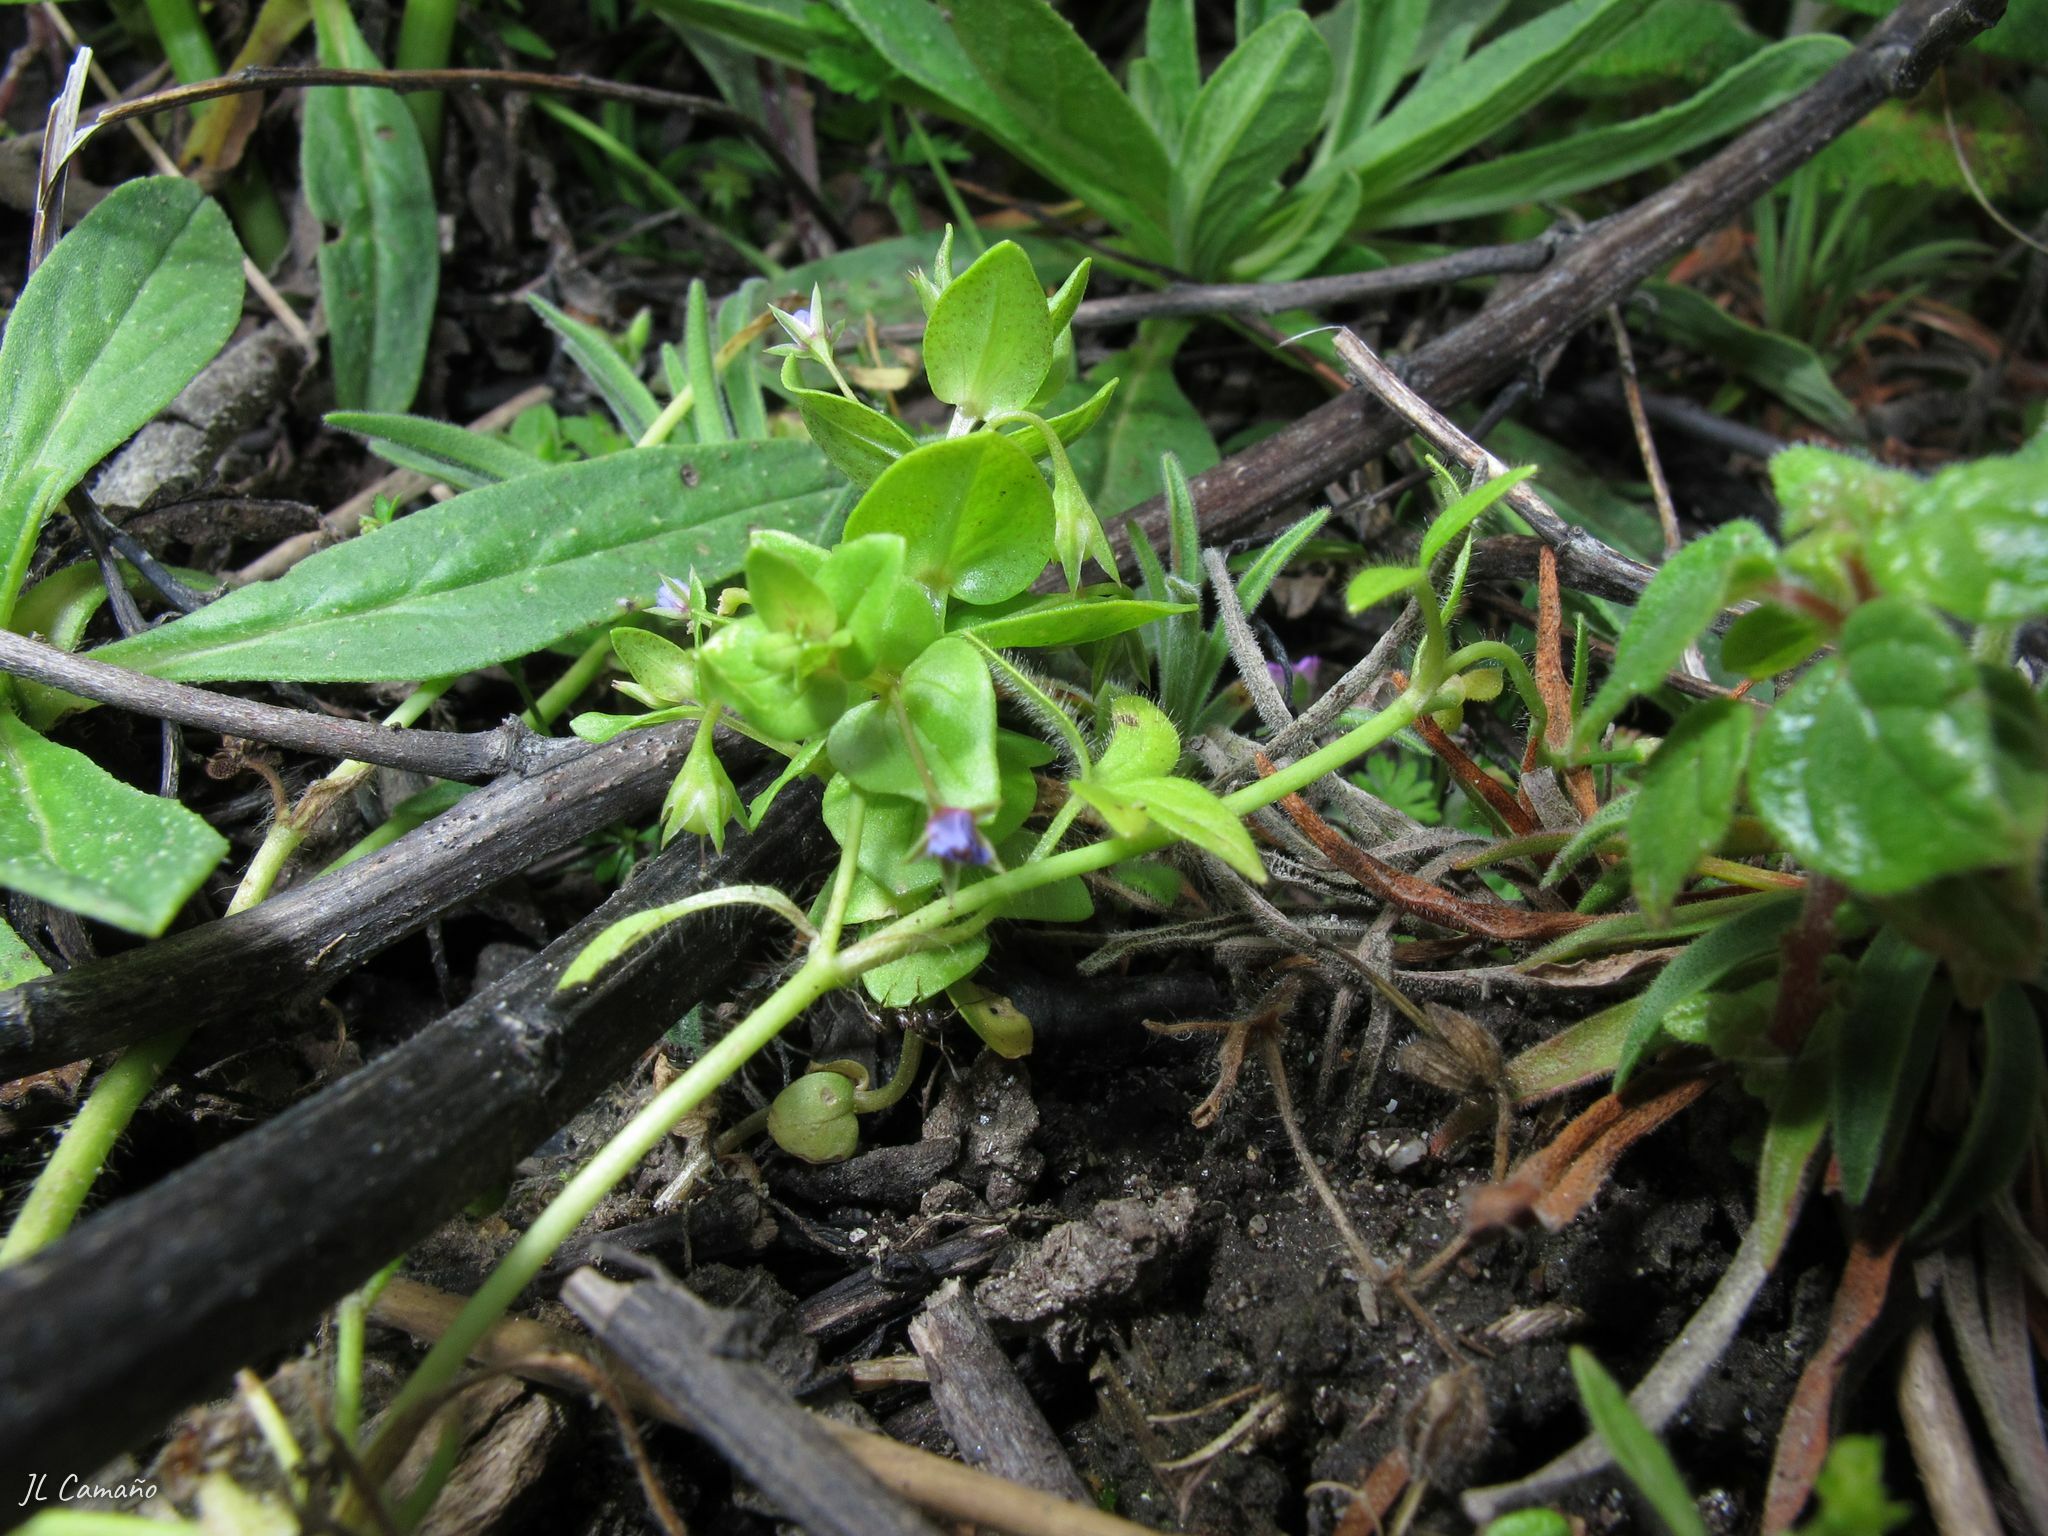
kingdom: Plantae
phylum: Tracheophyta
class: Magnoliopsida
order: Ericales
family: Primulaceae
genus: Lysimachia
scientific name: Lysimachia loeflingii
